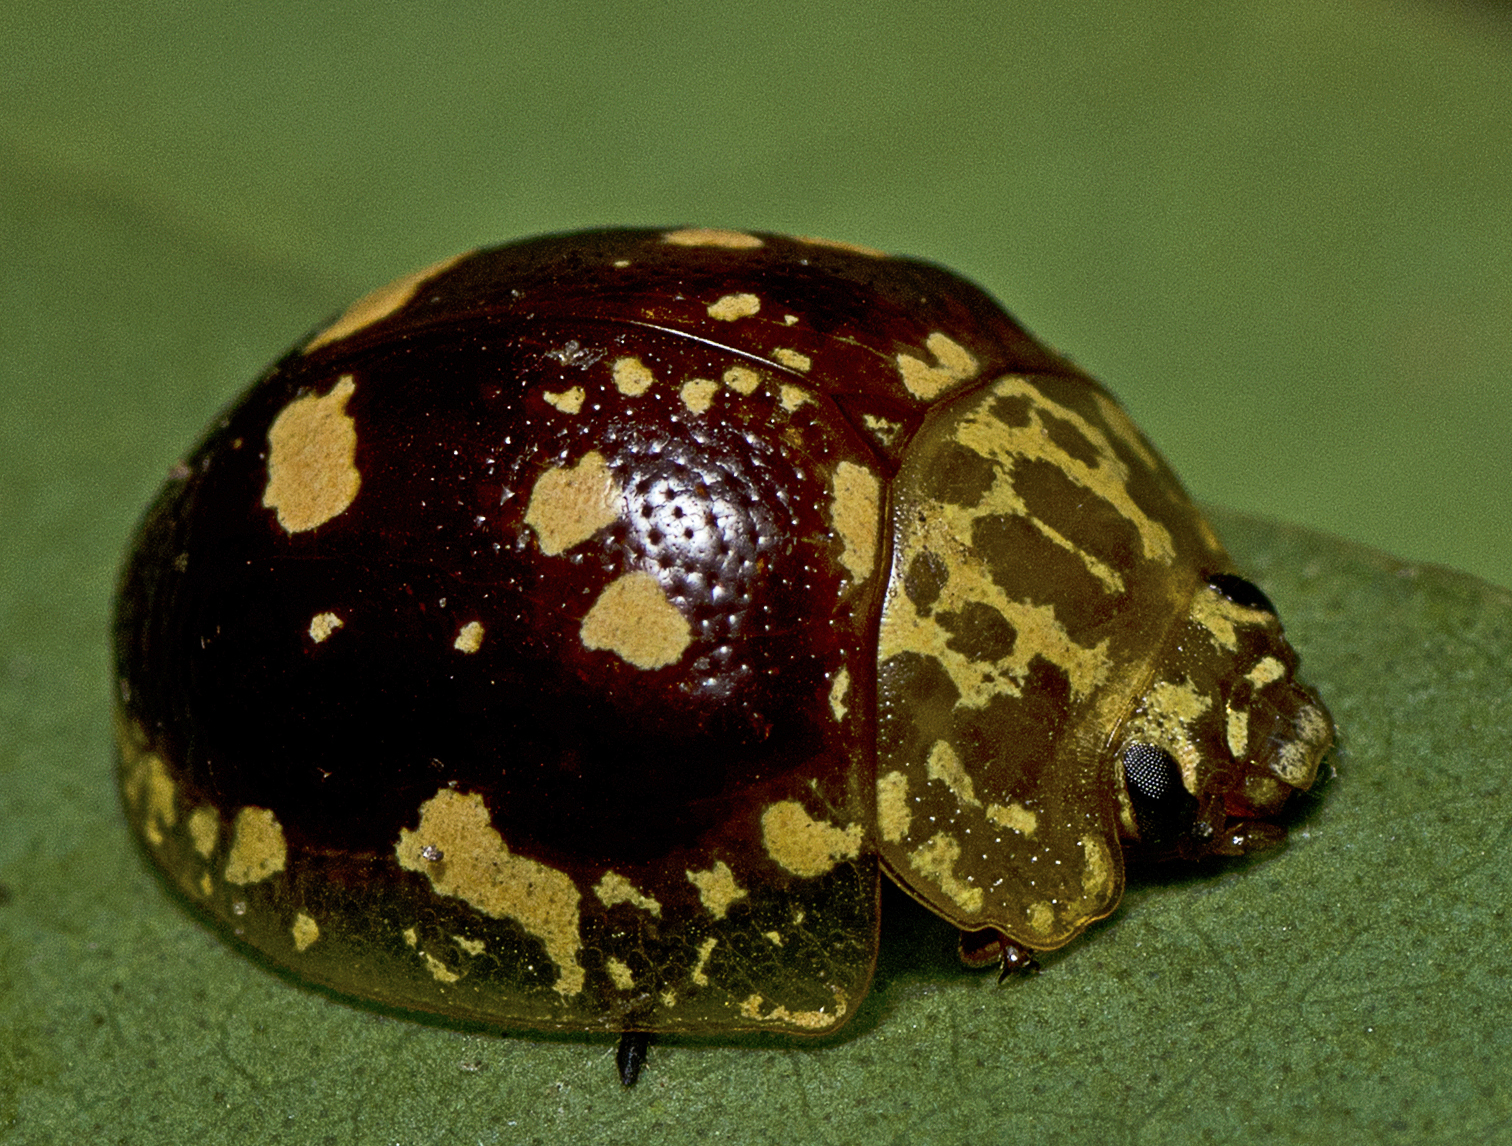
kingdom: Animalia
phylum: Arthropoda
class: Insecta
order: Coleoptera
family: Chrysomelidae
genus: Paropsis
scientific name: Paropsis maculata
